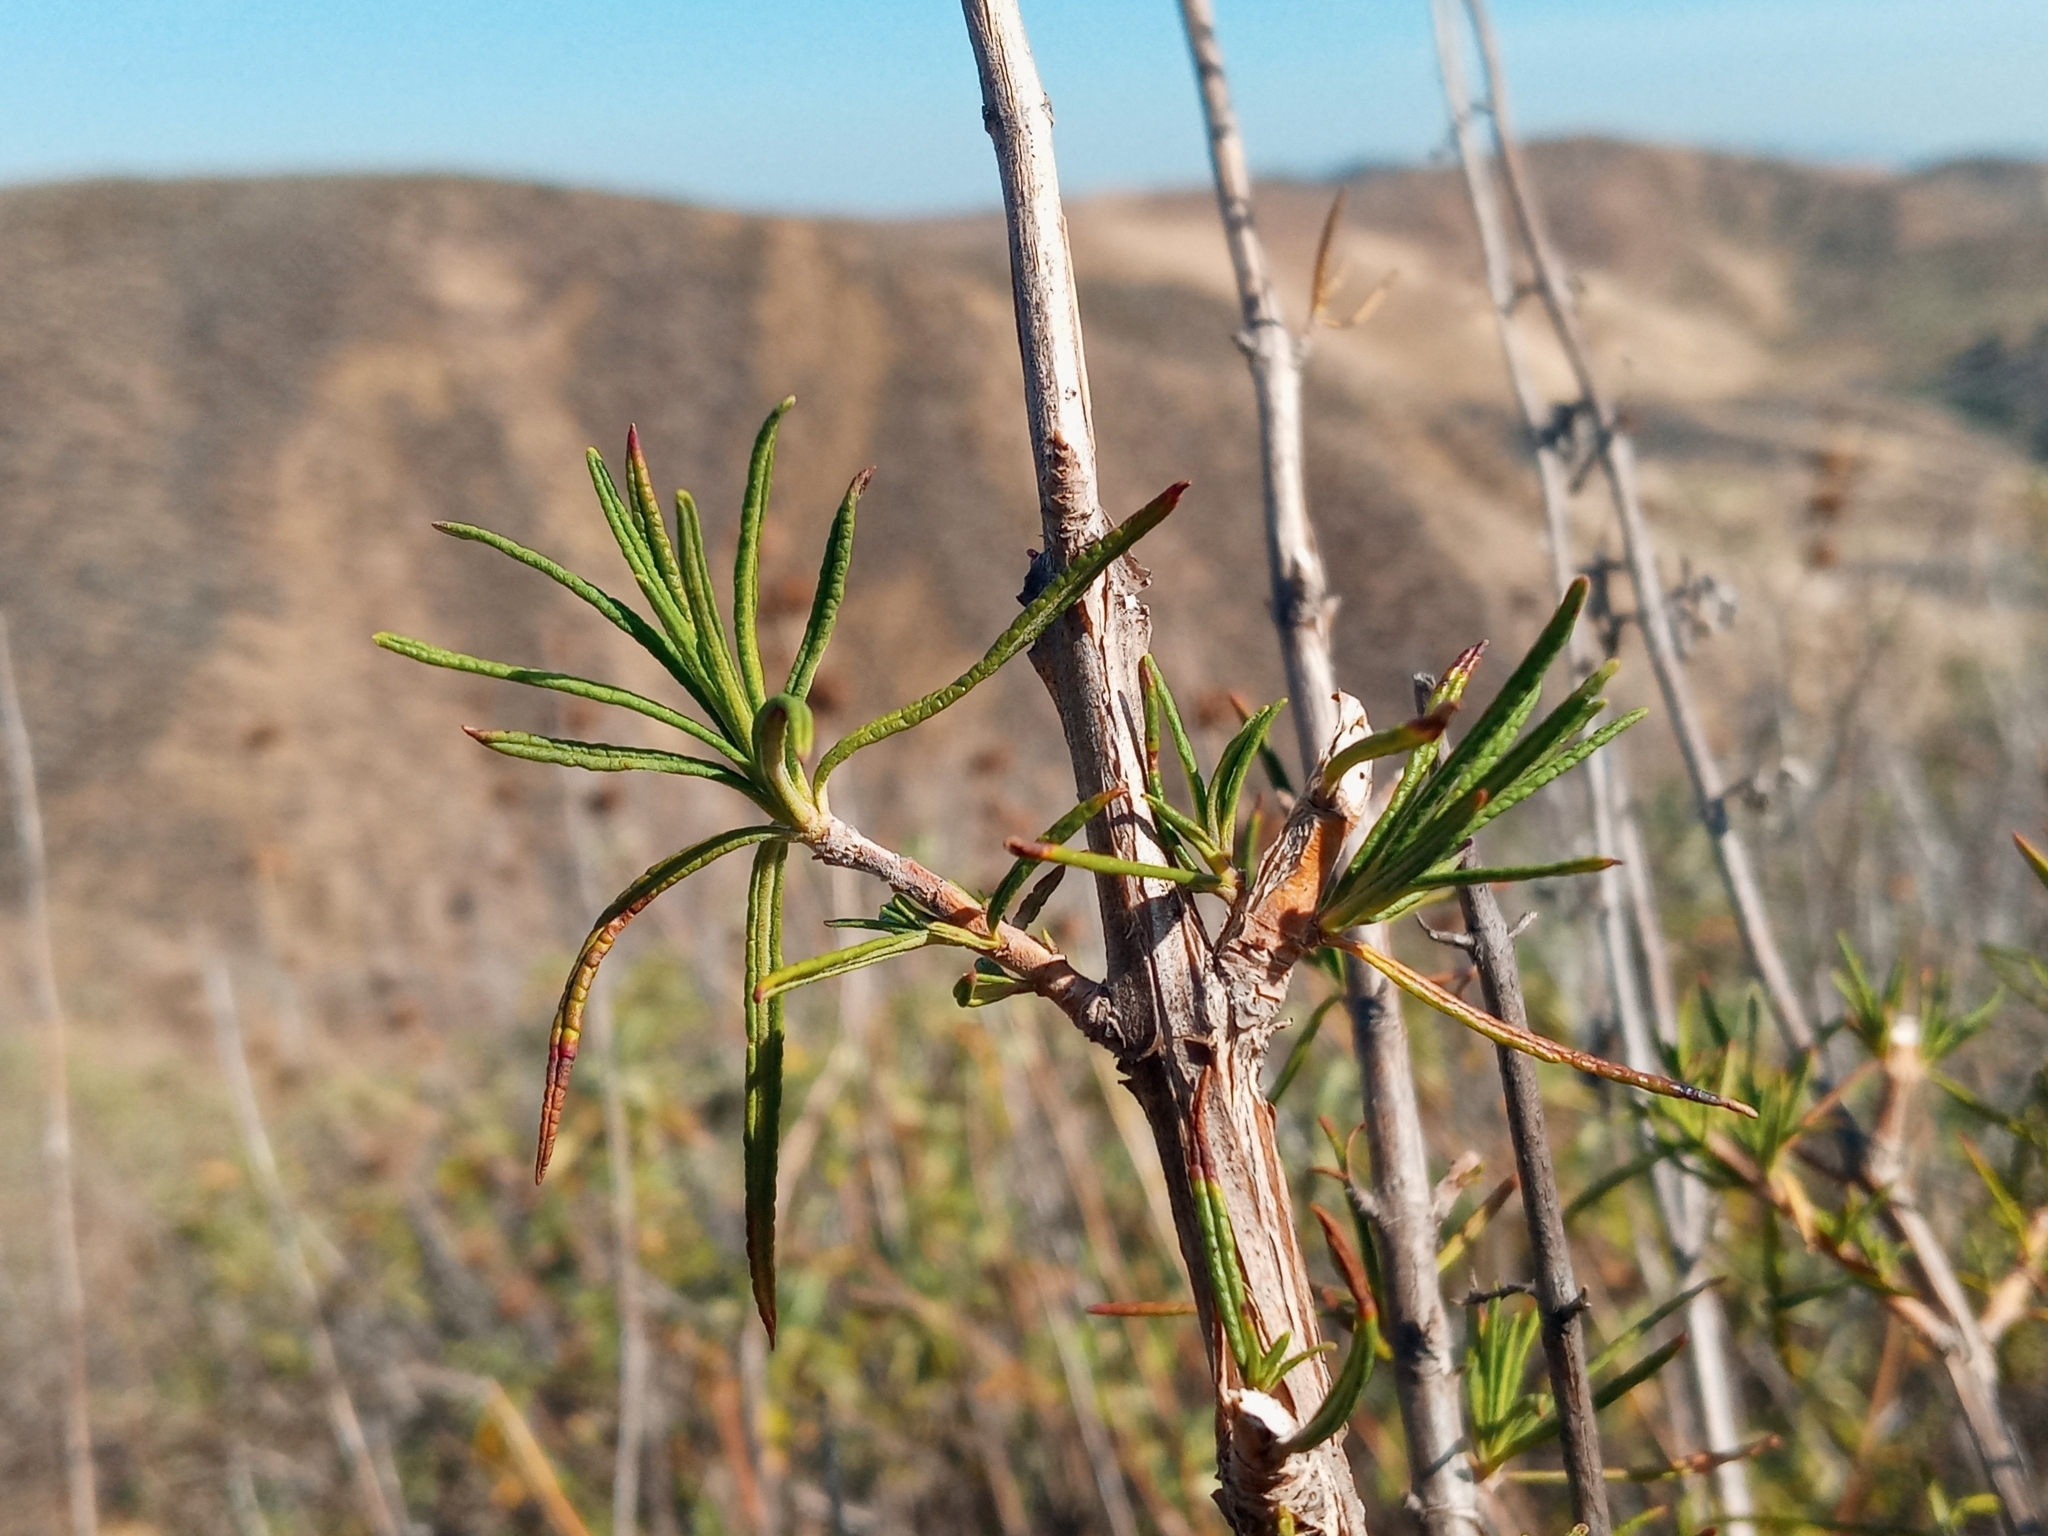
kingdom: Plantae
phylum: Tracheophyta
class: Magnoliopsida
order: Lamiales
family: Lamiaceae
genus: Trichostema
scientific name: Trichostema lanatum
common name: Woolly bluecurls
